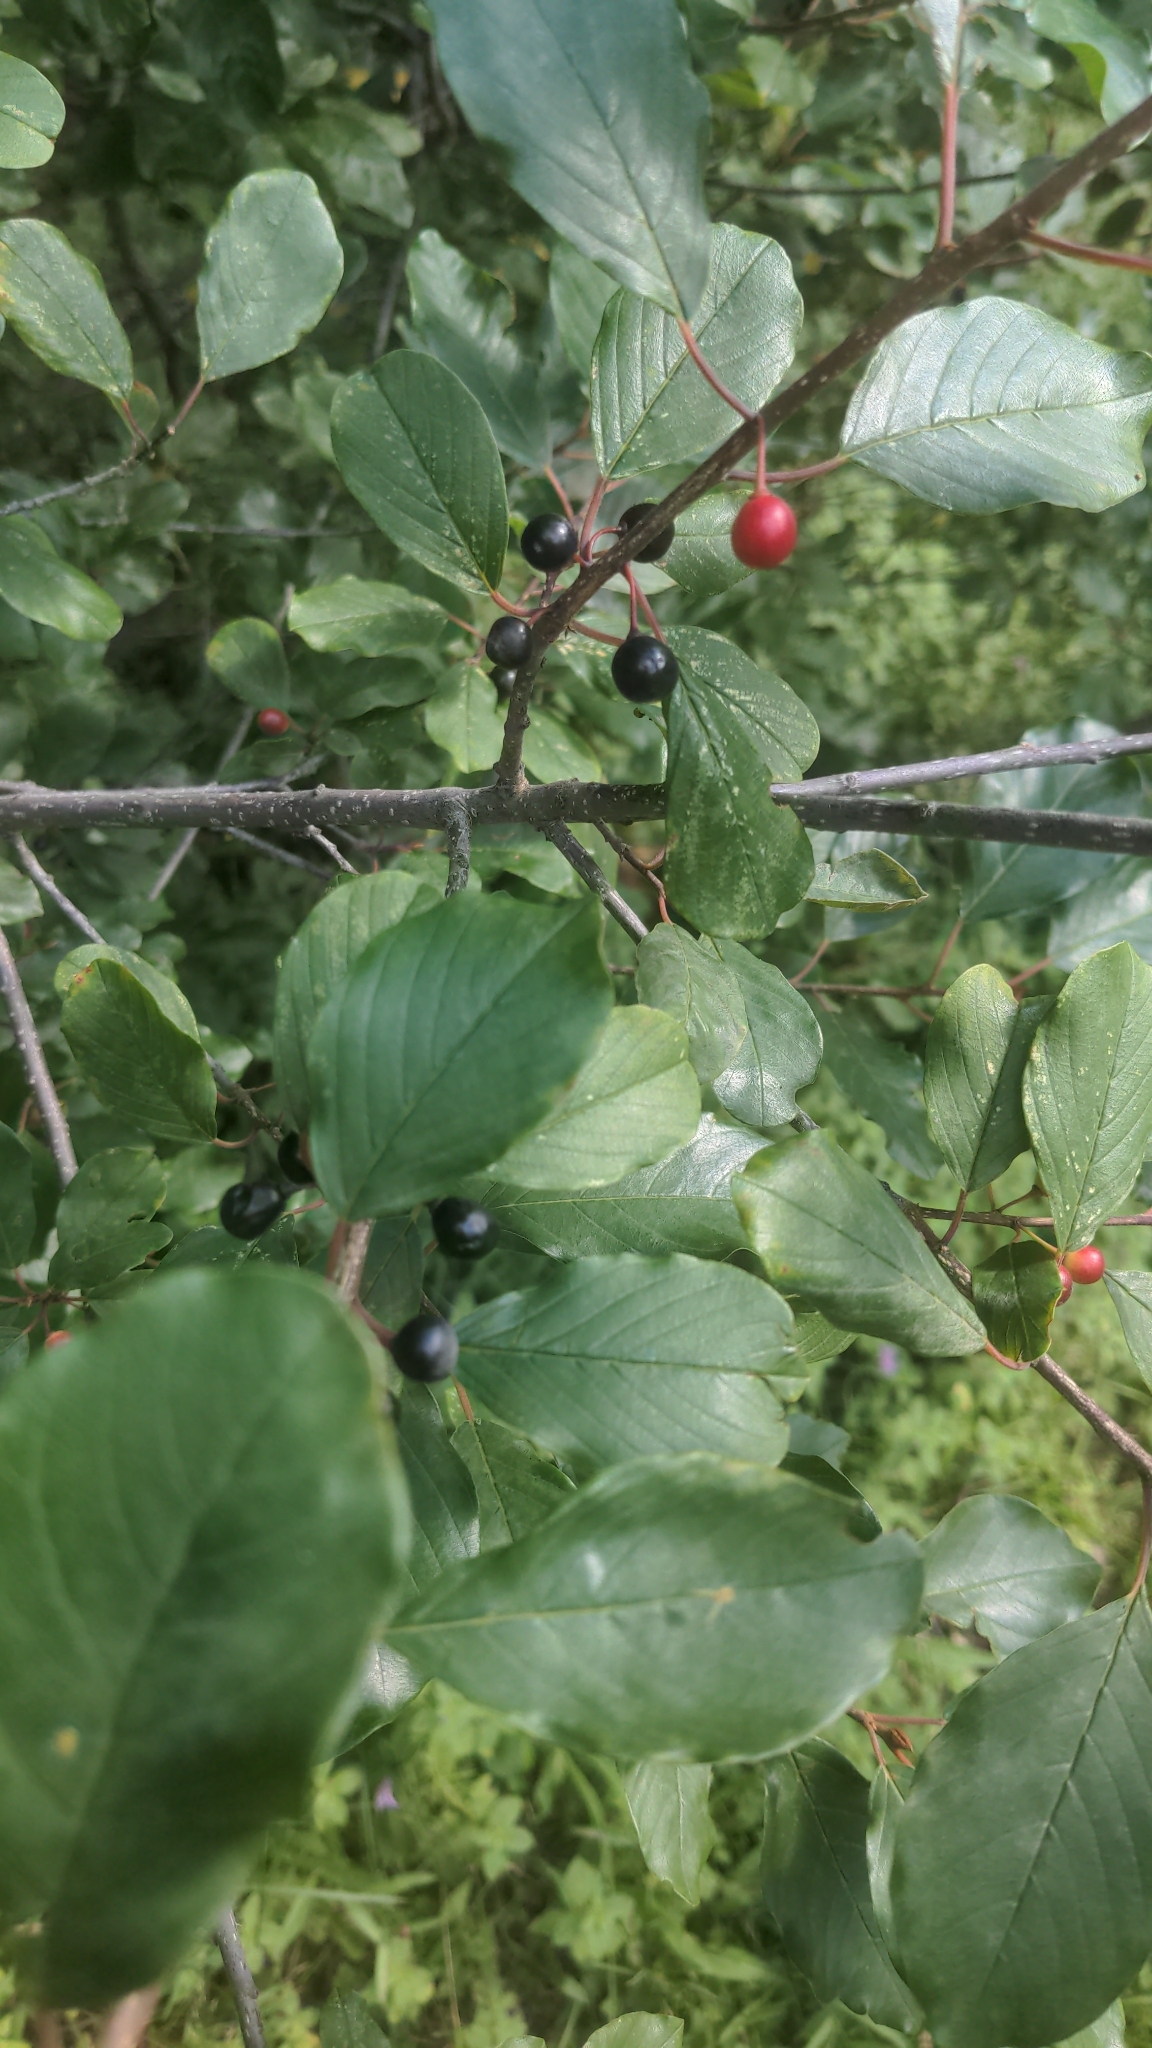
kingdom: Plantae
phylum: Tracheophyta
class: Magnoliopsida
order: Rosales
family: Rhamnaceae
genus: Frangula
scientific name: Frangula alnus
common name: Alder buckthorn
